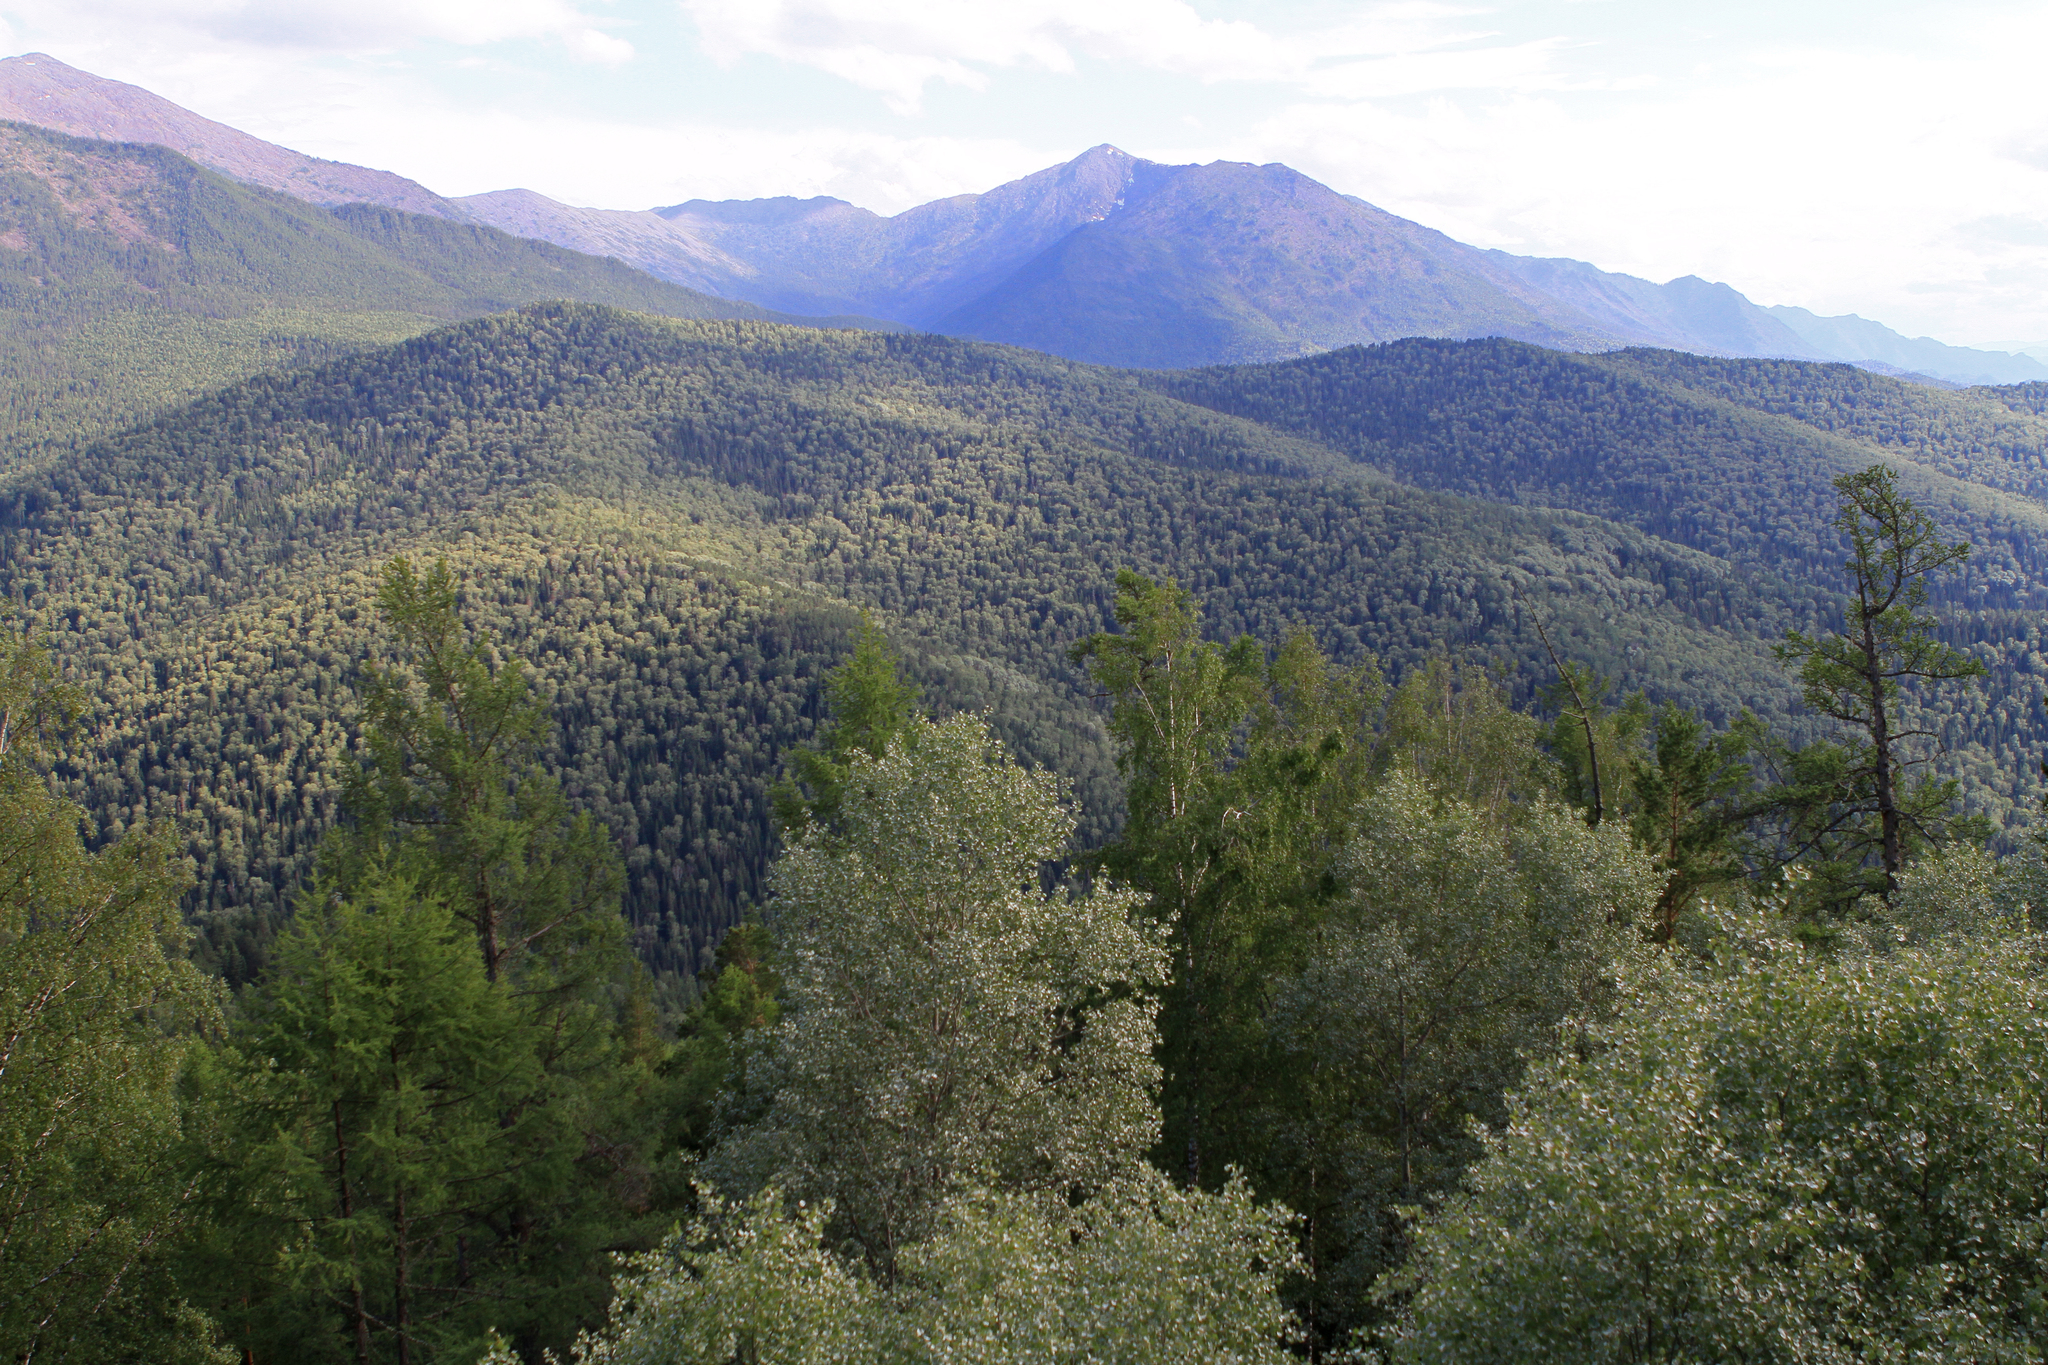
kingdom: Plantae
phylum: Tracheophyta
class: Magnoliopsida
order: Malpighiales
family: Salicaceae
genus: Populus
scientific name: Populus tremula
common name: European aspen
